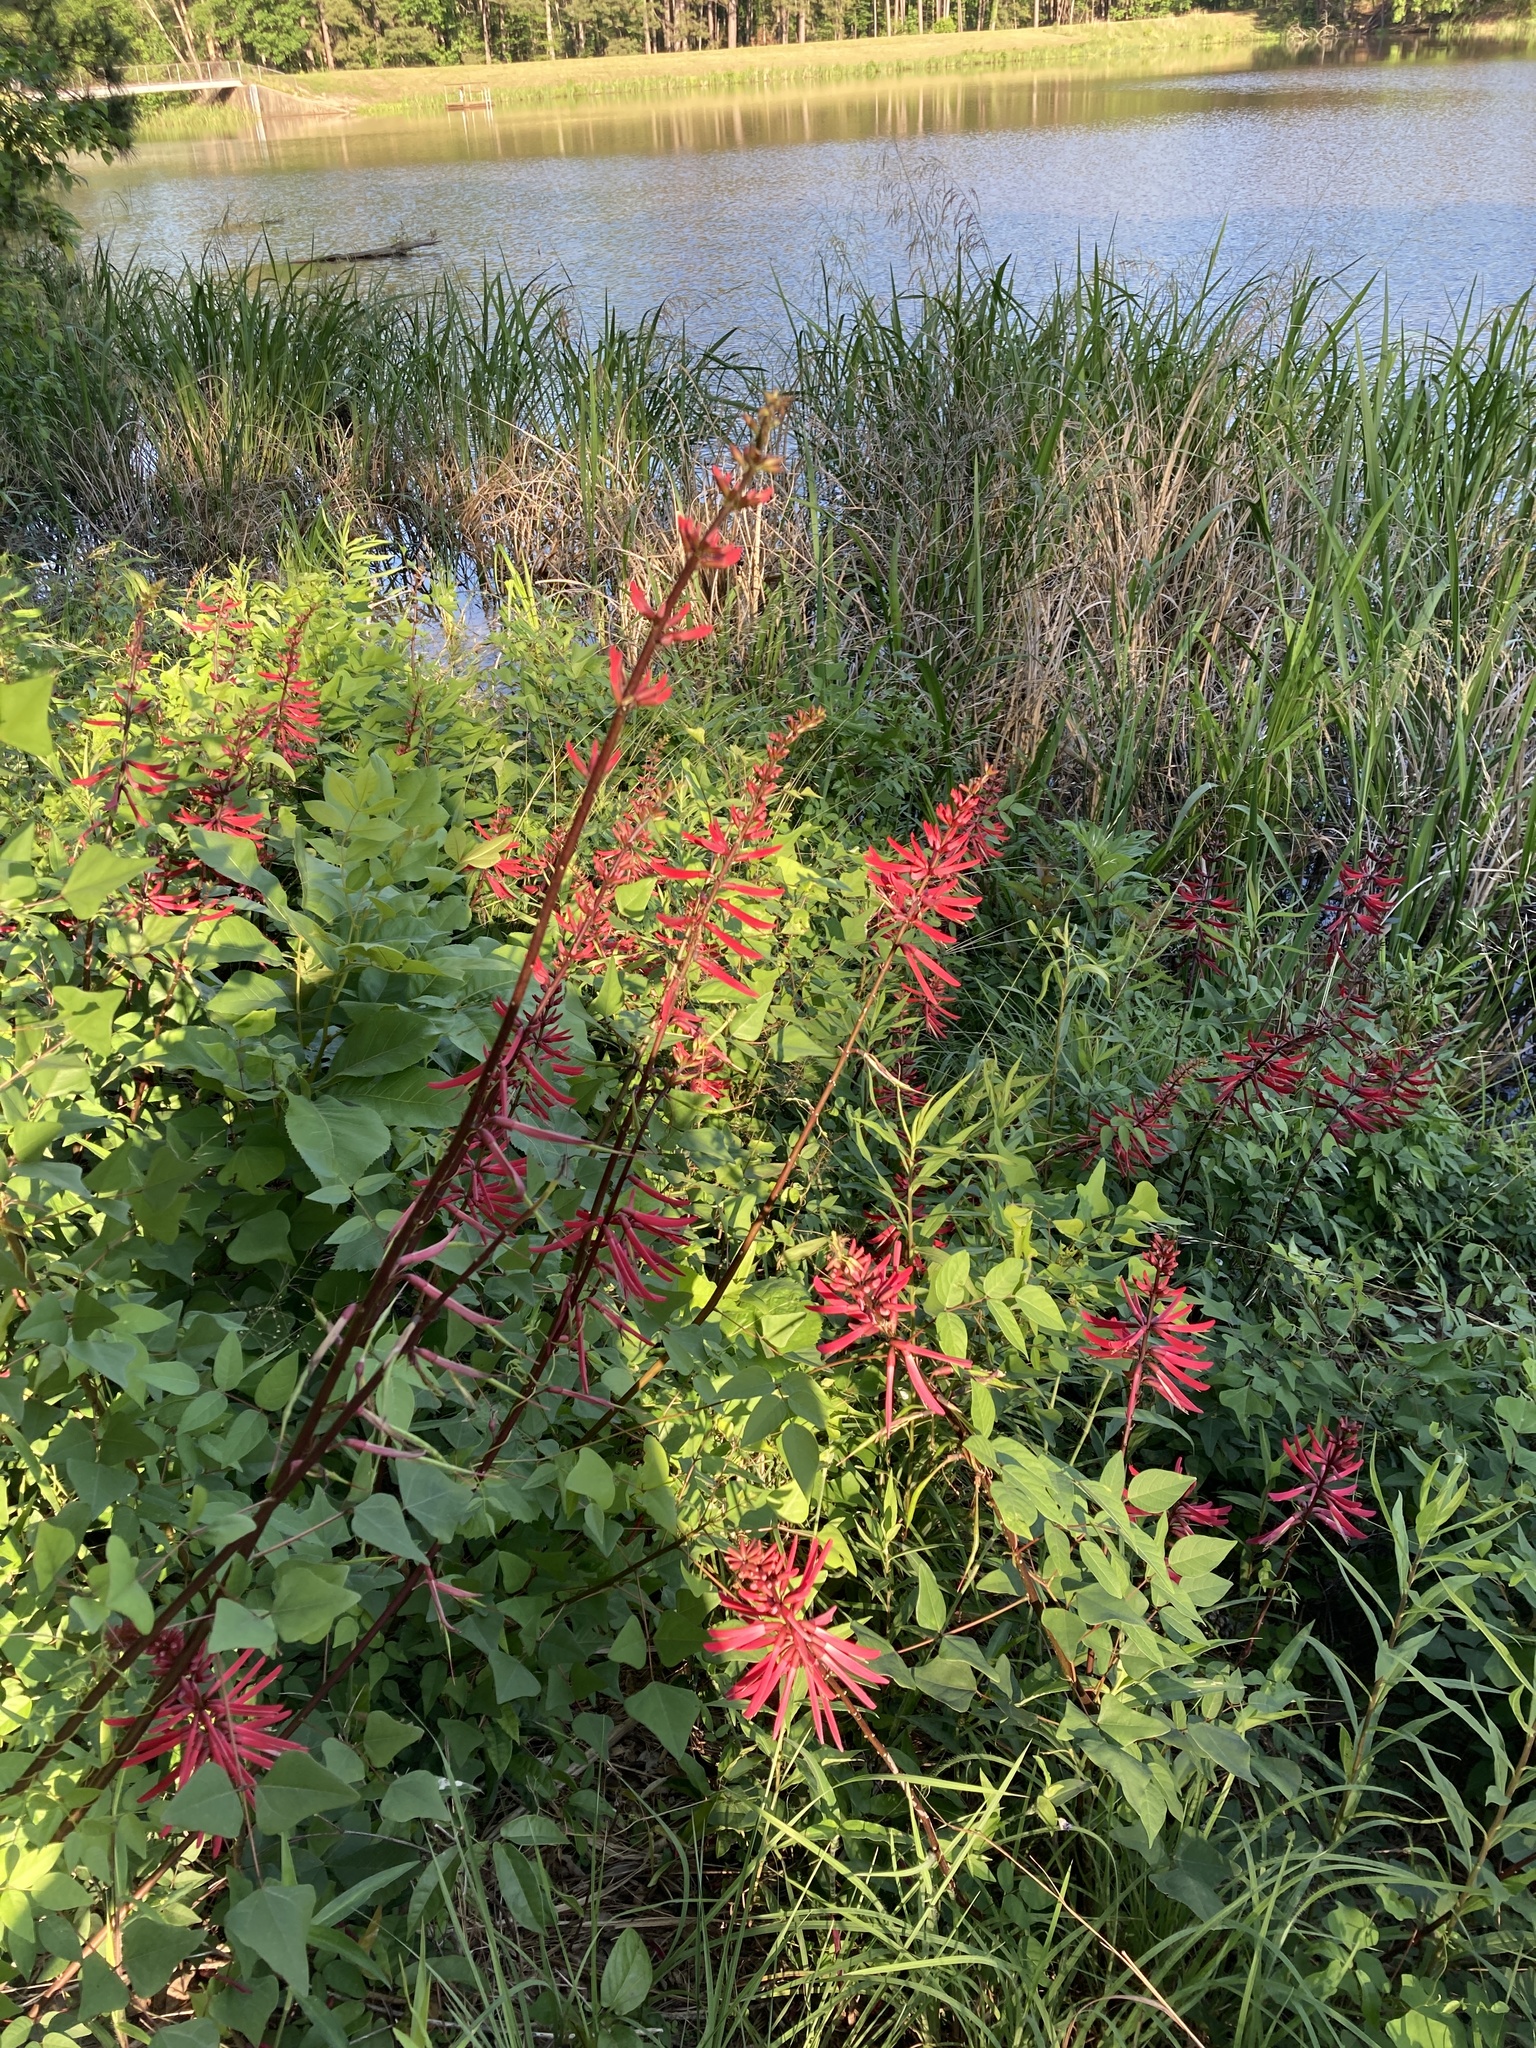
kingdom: Plantae
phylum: Tracheophyta
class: Magnoliopsida
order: Fabales
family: Fabaceae
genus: Erythrina
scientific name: Erythrina herbacea
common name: Coral-bean
